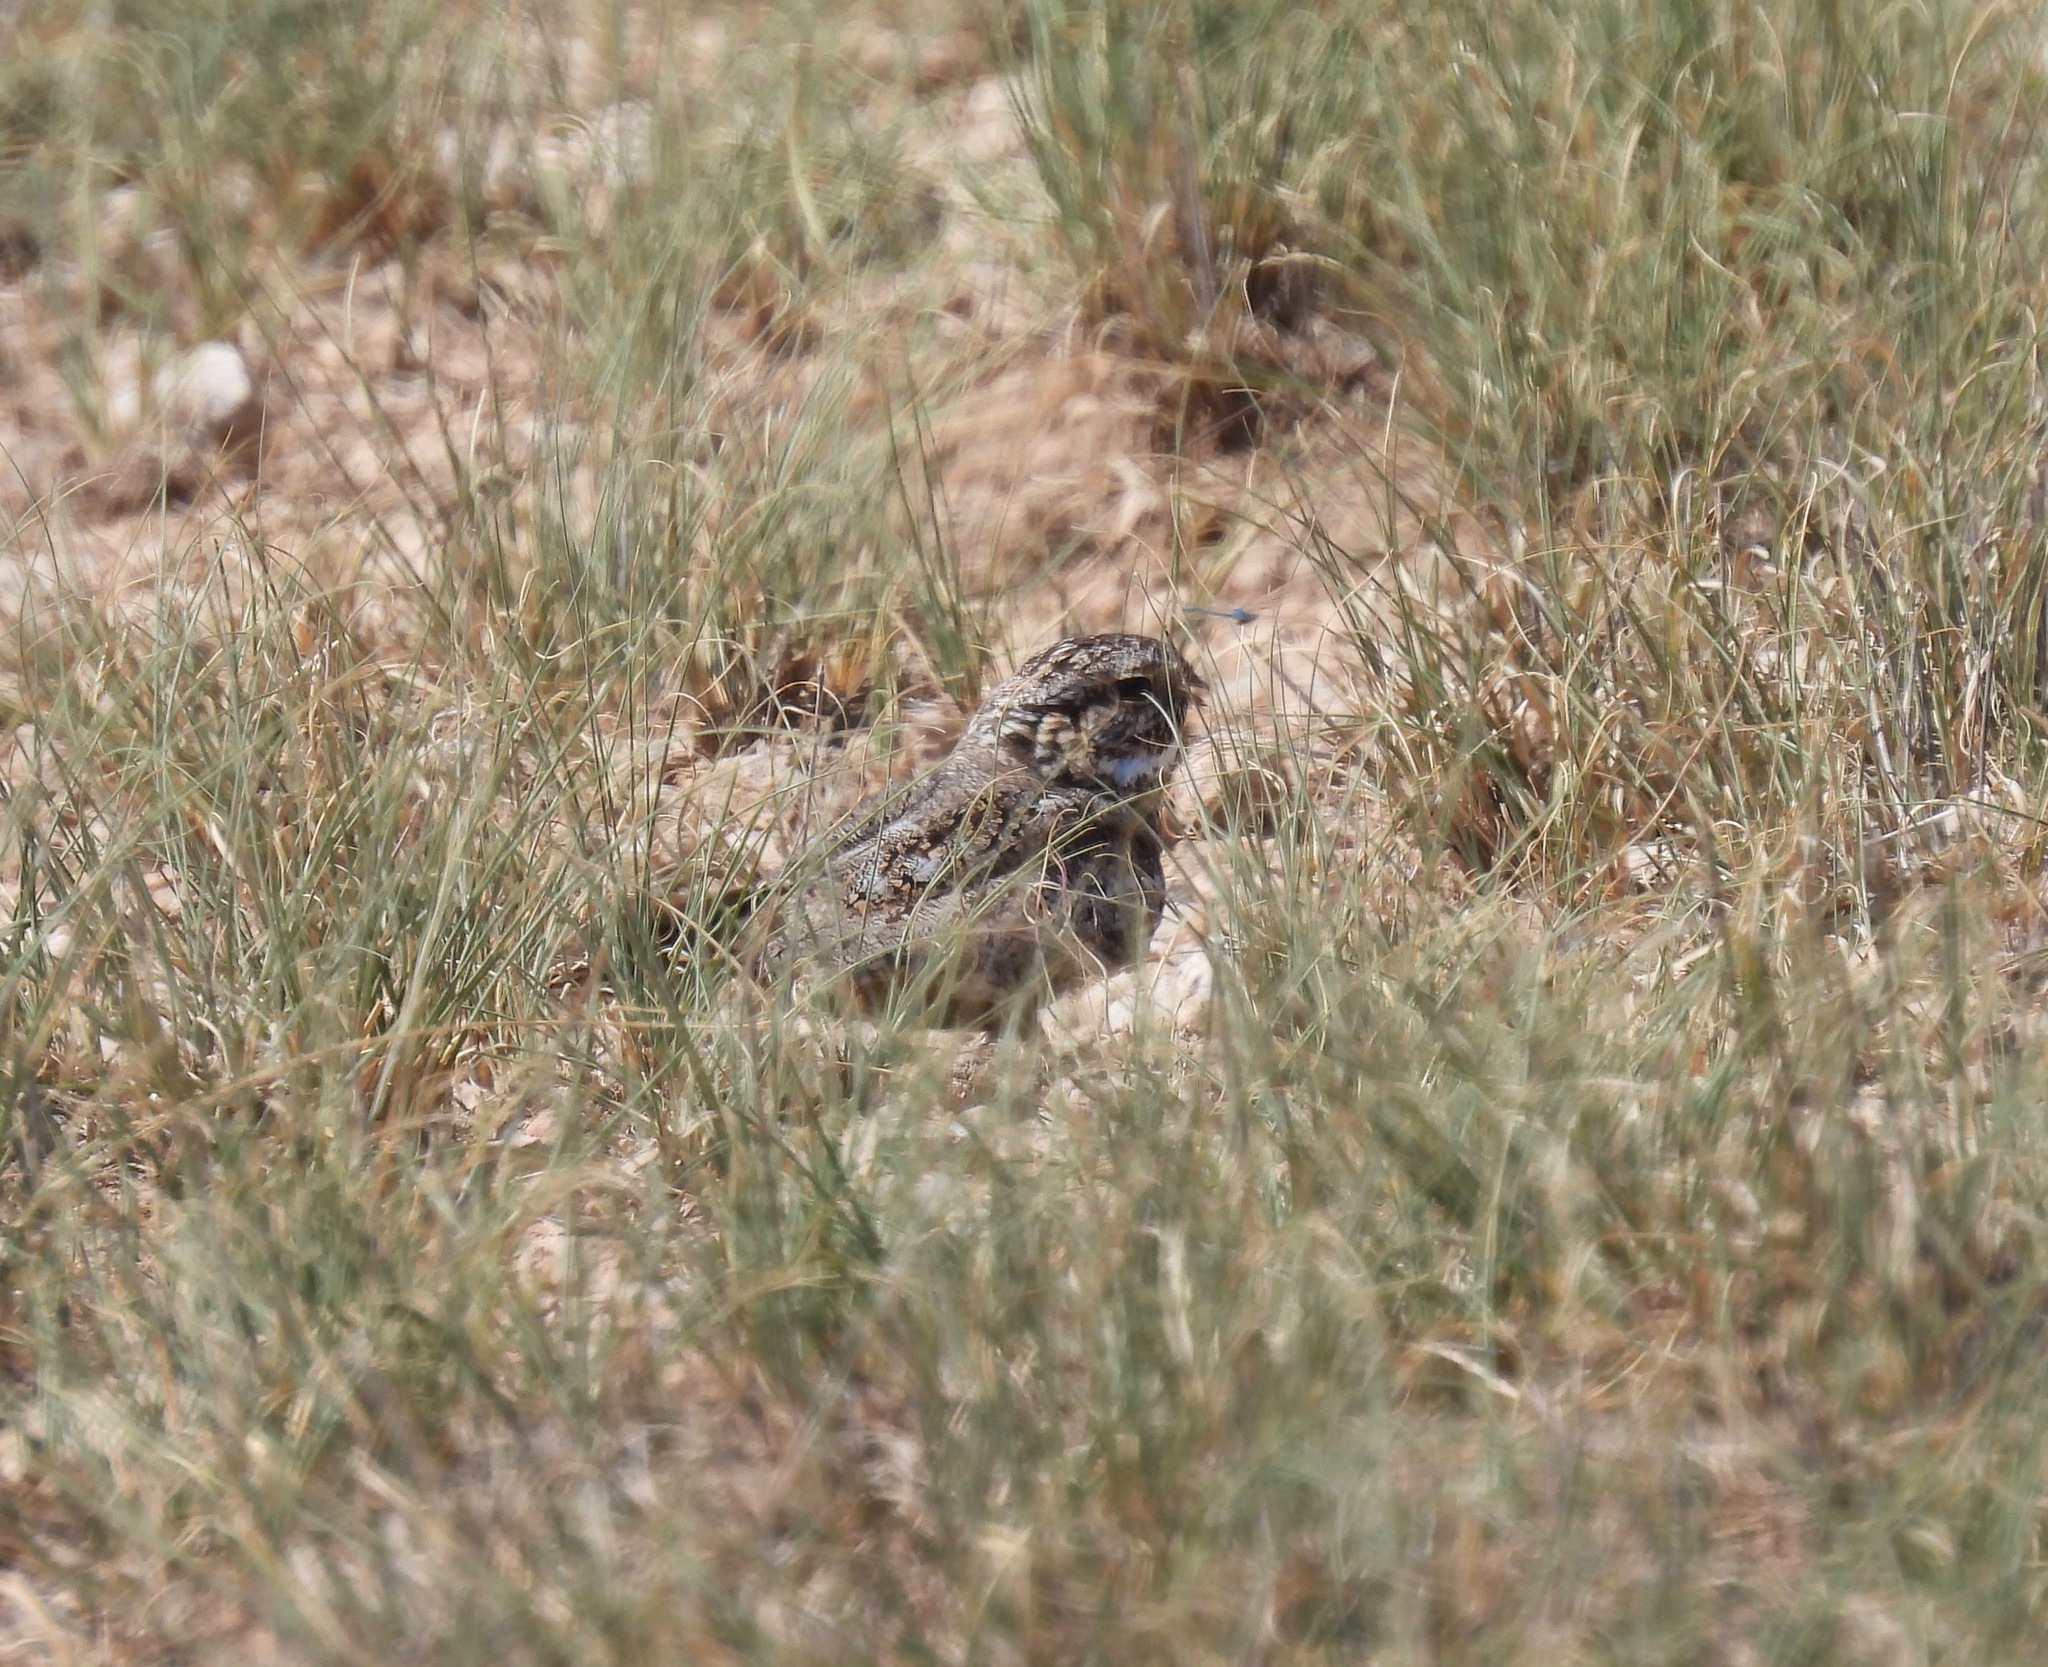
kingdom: Animalia
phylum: Chordata
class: Aves
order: Caprimulgiformes
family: Caprimulgidae
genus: Chordeiles
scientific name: Chordeiles acutipennis
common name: Lesser nighthawk
